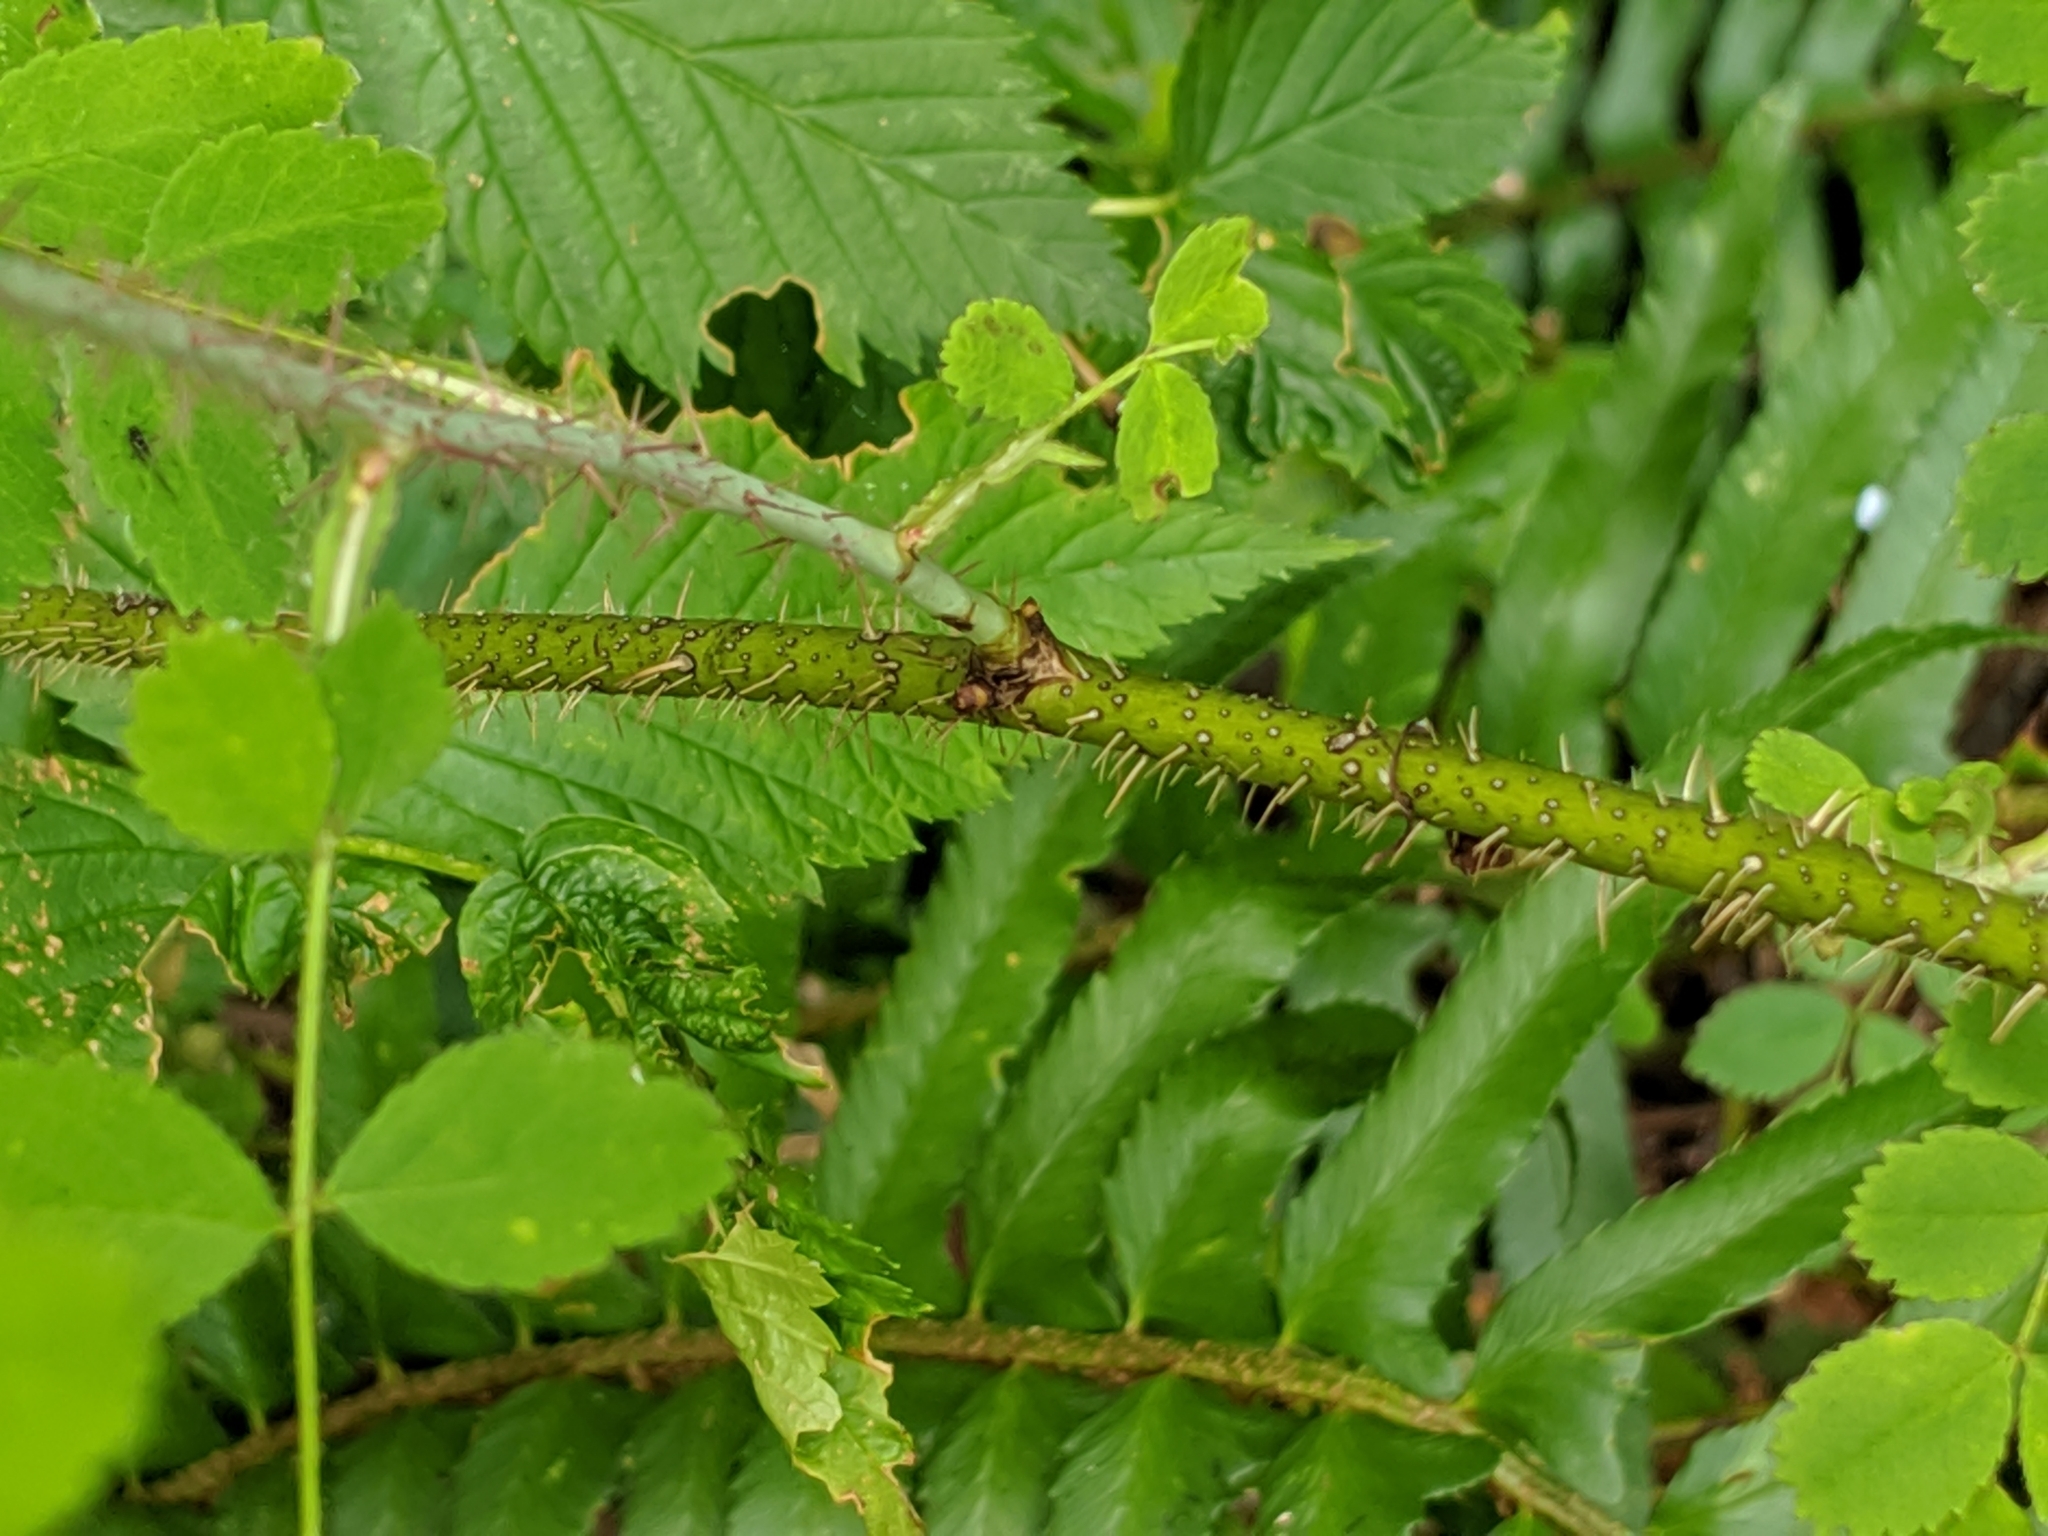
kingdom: Plantae
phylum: Tracheophyta
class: Magnoliopsida
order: Rosales
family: Rosaceae
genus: Rosa
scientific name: Rosa gymnocarpa
